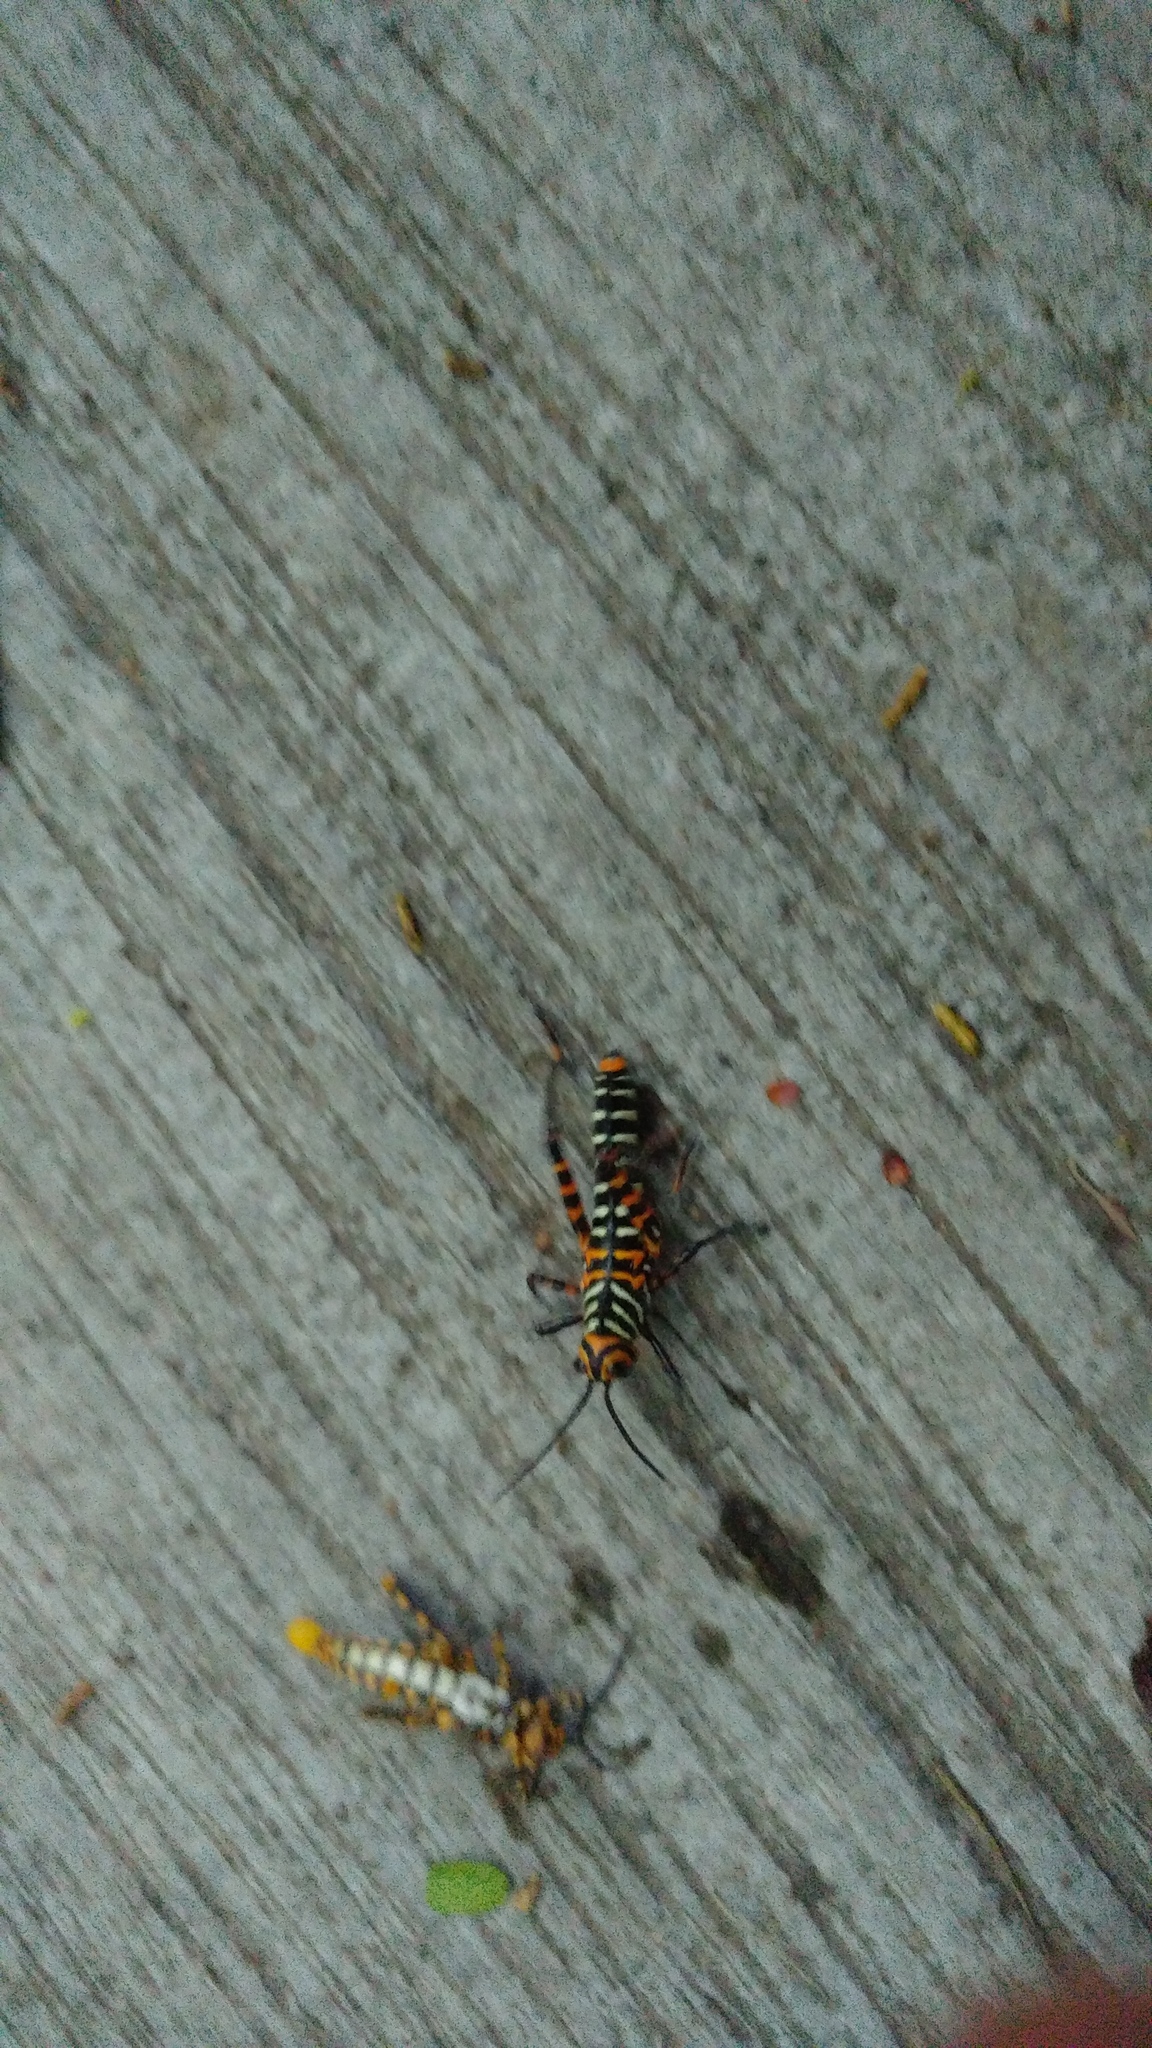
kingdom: Animalia
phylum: Arthropoda
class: Insecta
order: Orthoptera
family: Romaleidae
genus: Tropidacris
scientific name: Tropidacris cristata
